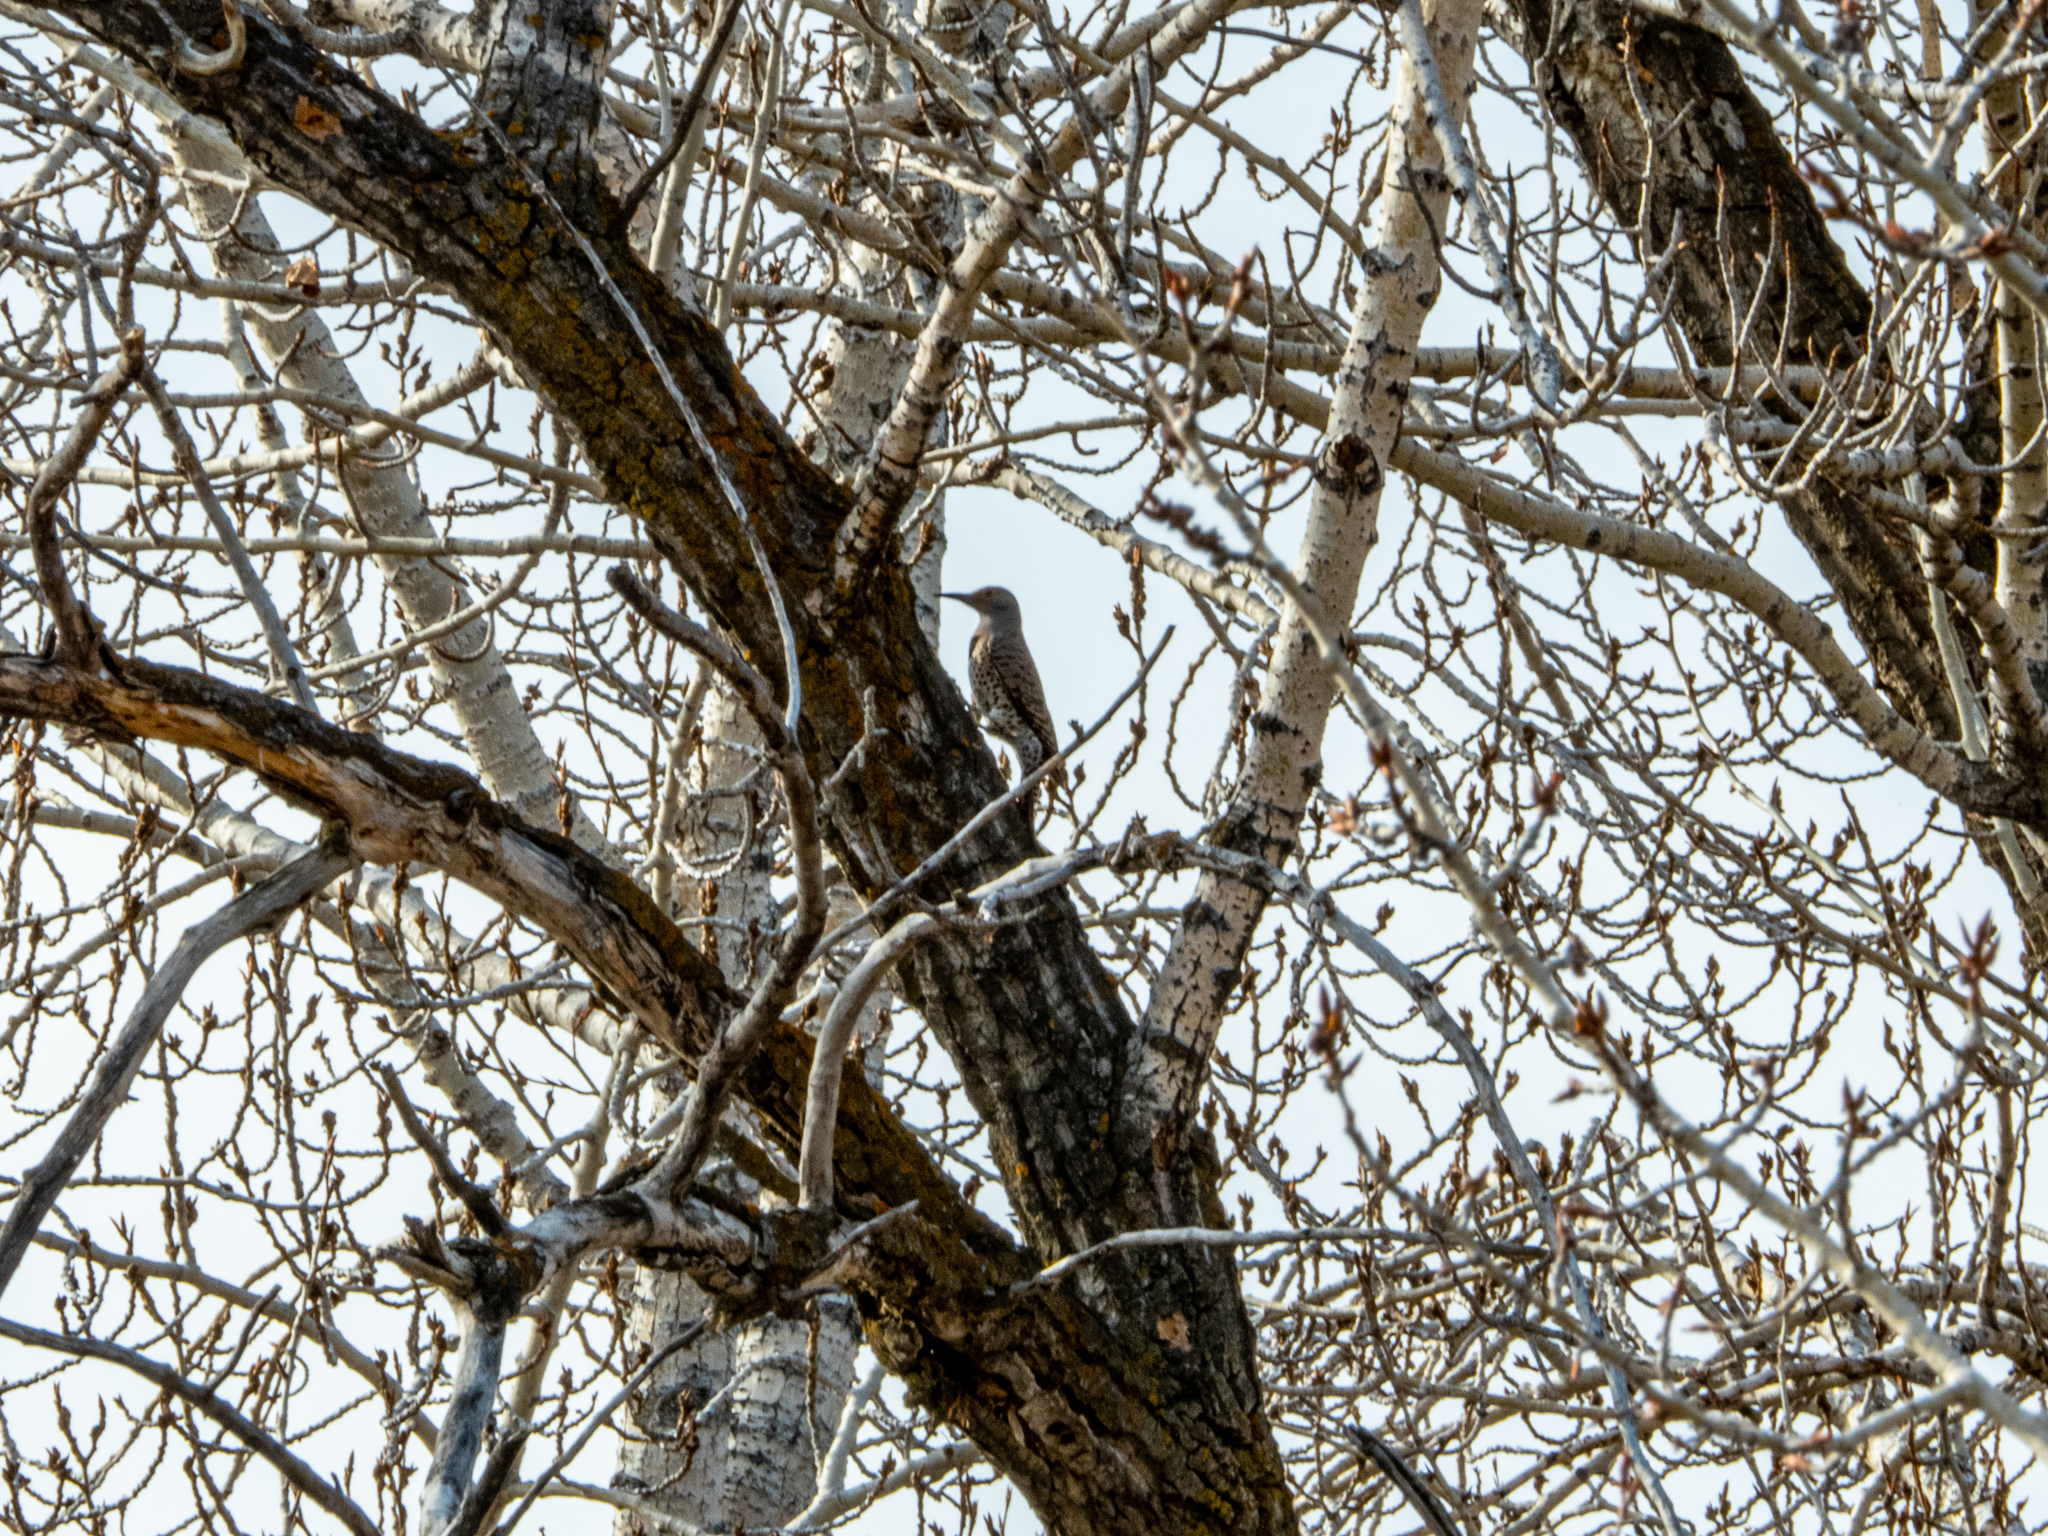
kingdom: Animalia
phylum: Chordata
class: Aves
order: Piciformes
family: Picidae
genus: Colaptes
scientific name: Colaptes auratus
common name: Northern flicker
